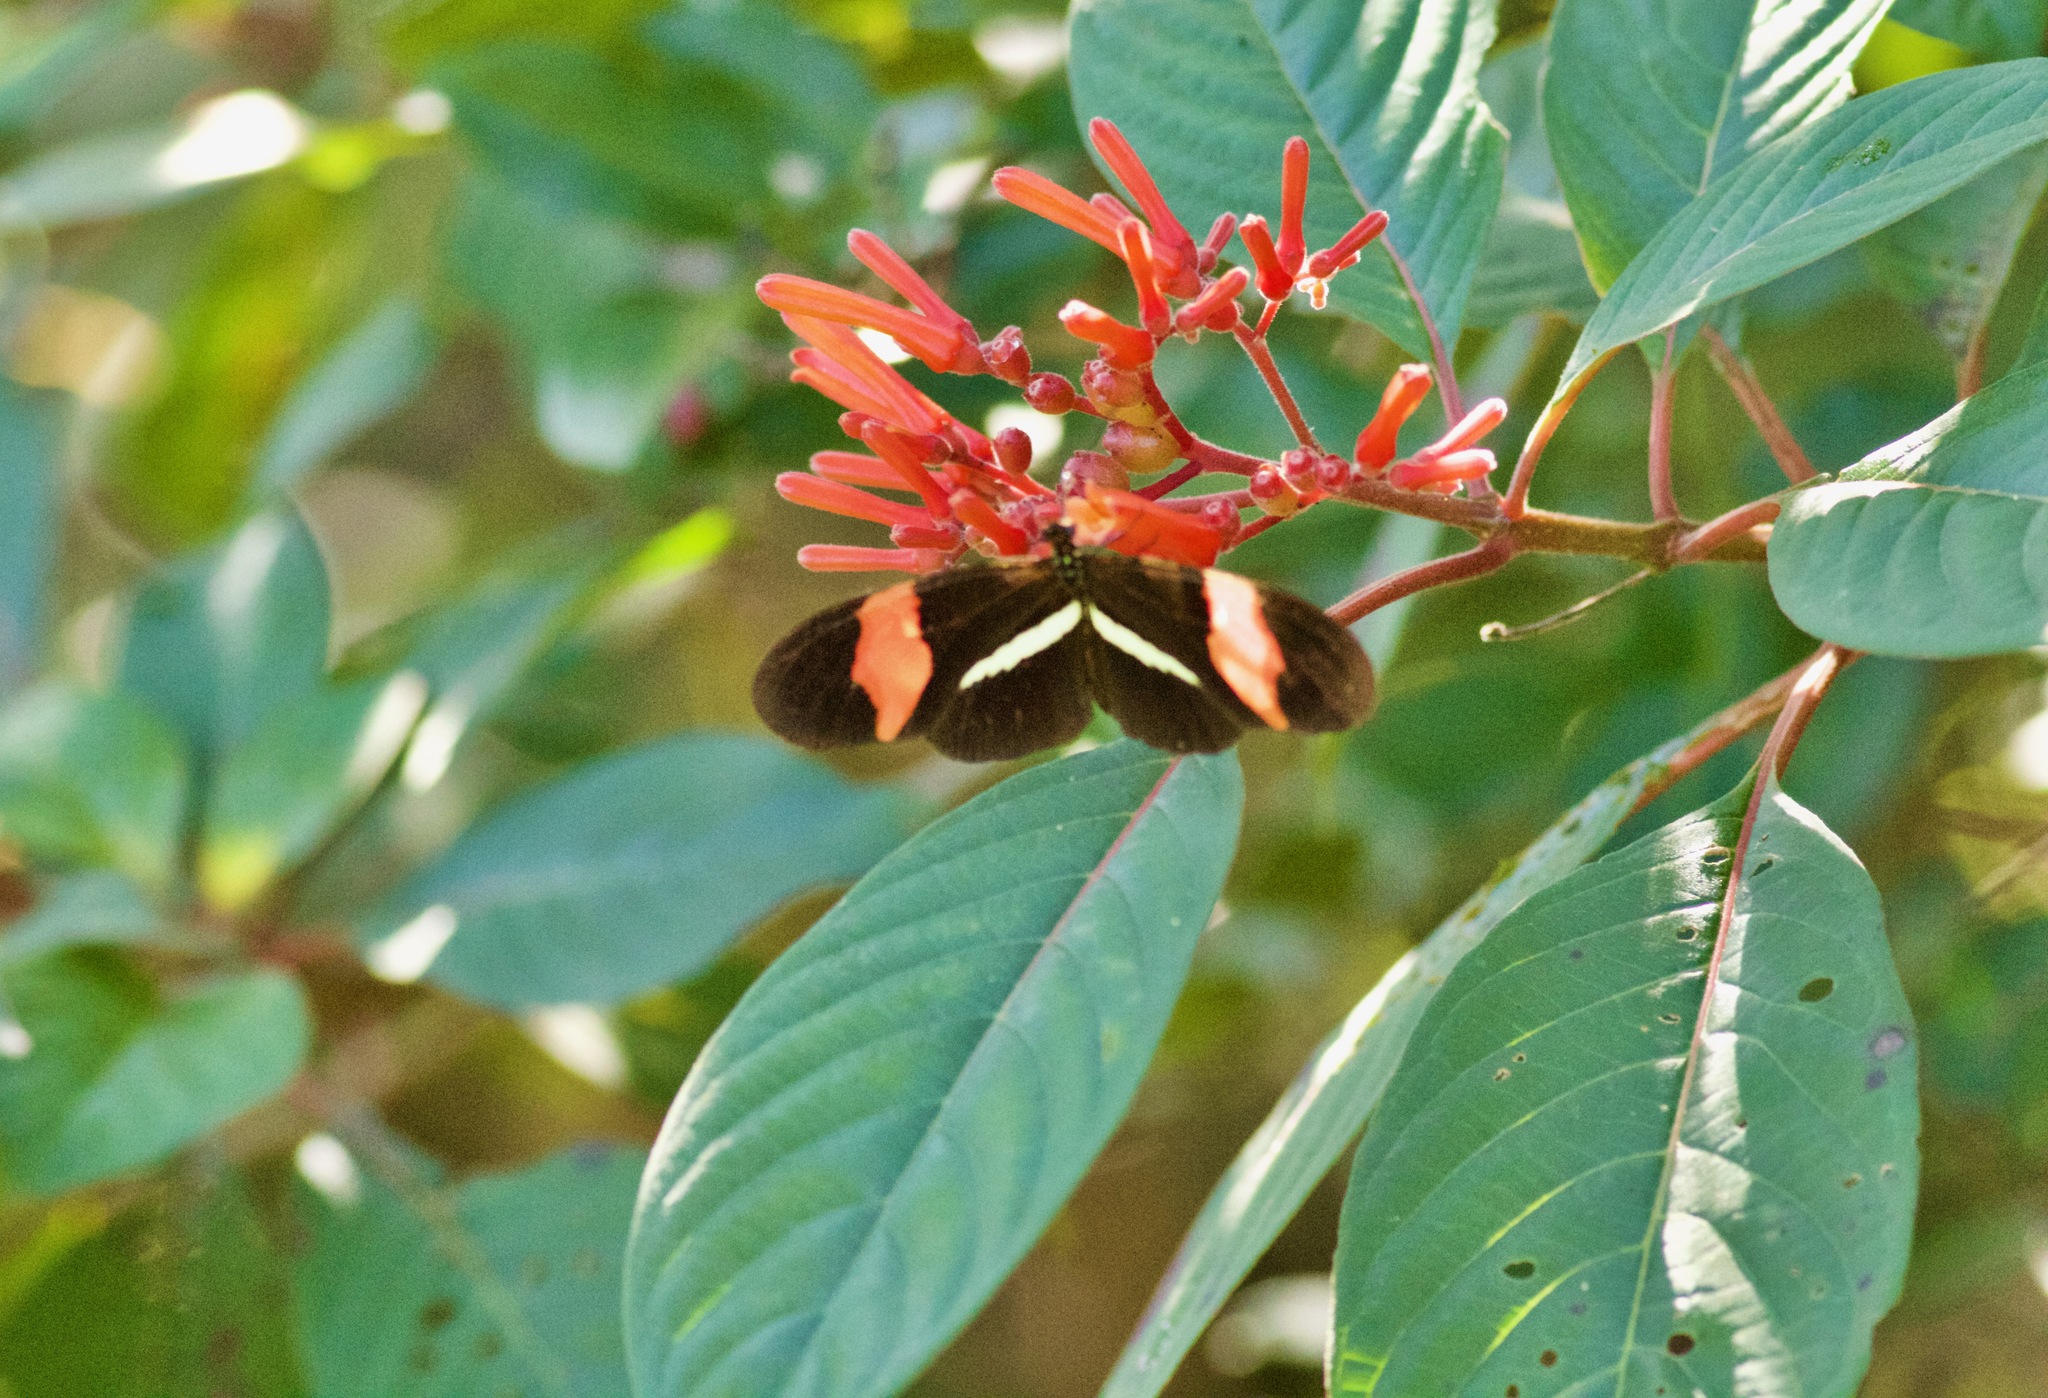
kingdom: Animalia
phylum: Arthropoda
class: Insecta
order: Lepidoptera
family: Nymphalidae
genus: Tirumala
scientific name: Tirumala petiverana
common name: Blue monarch
